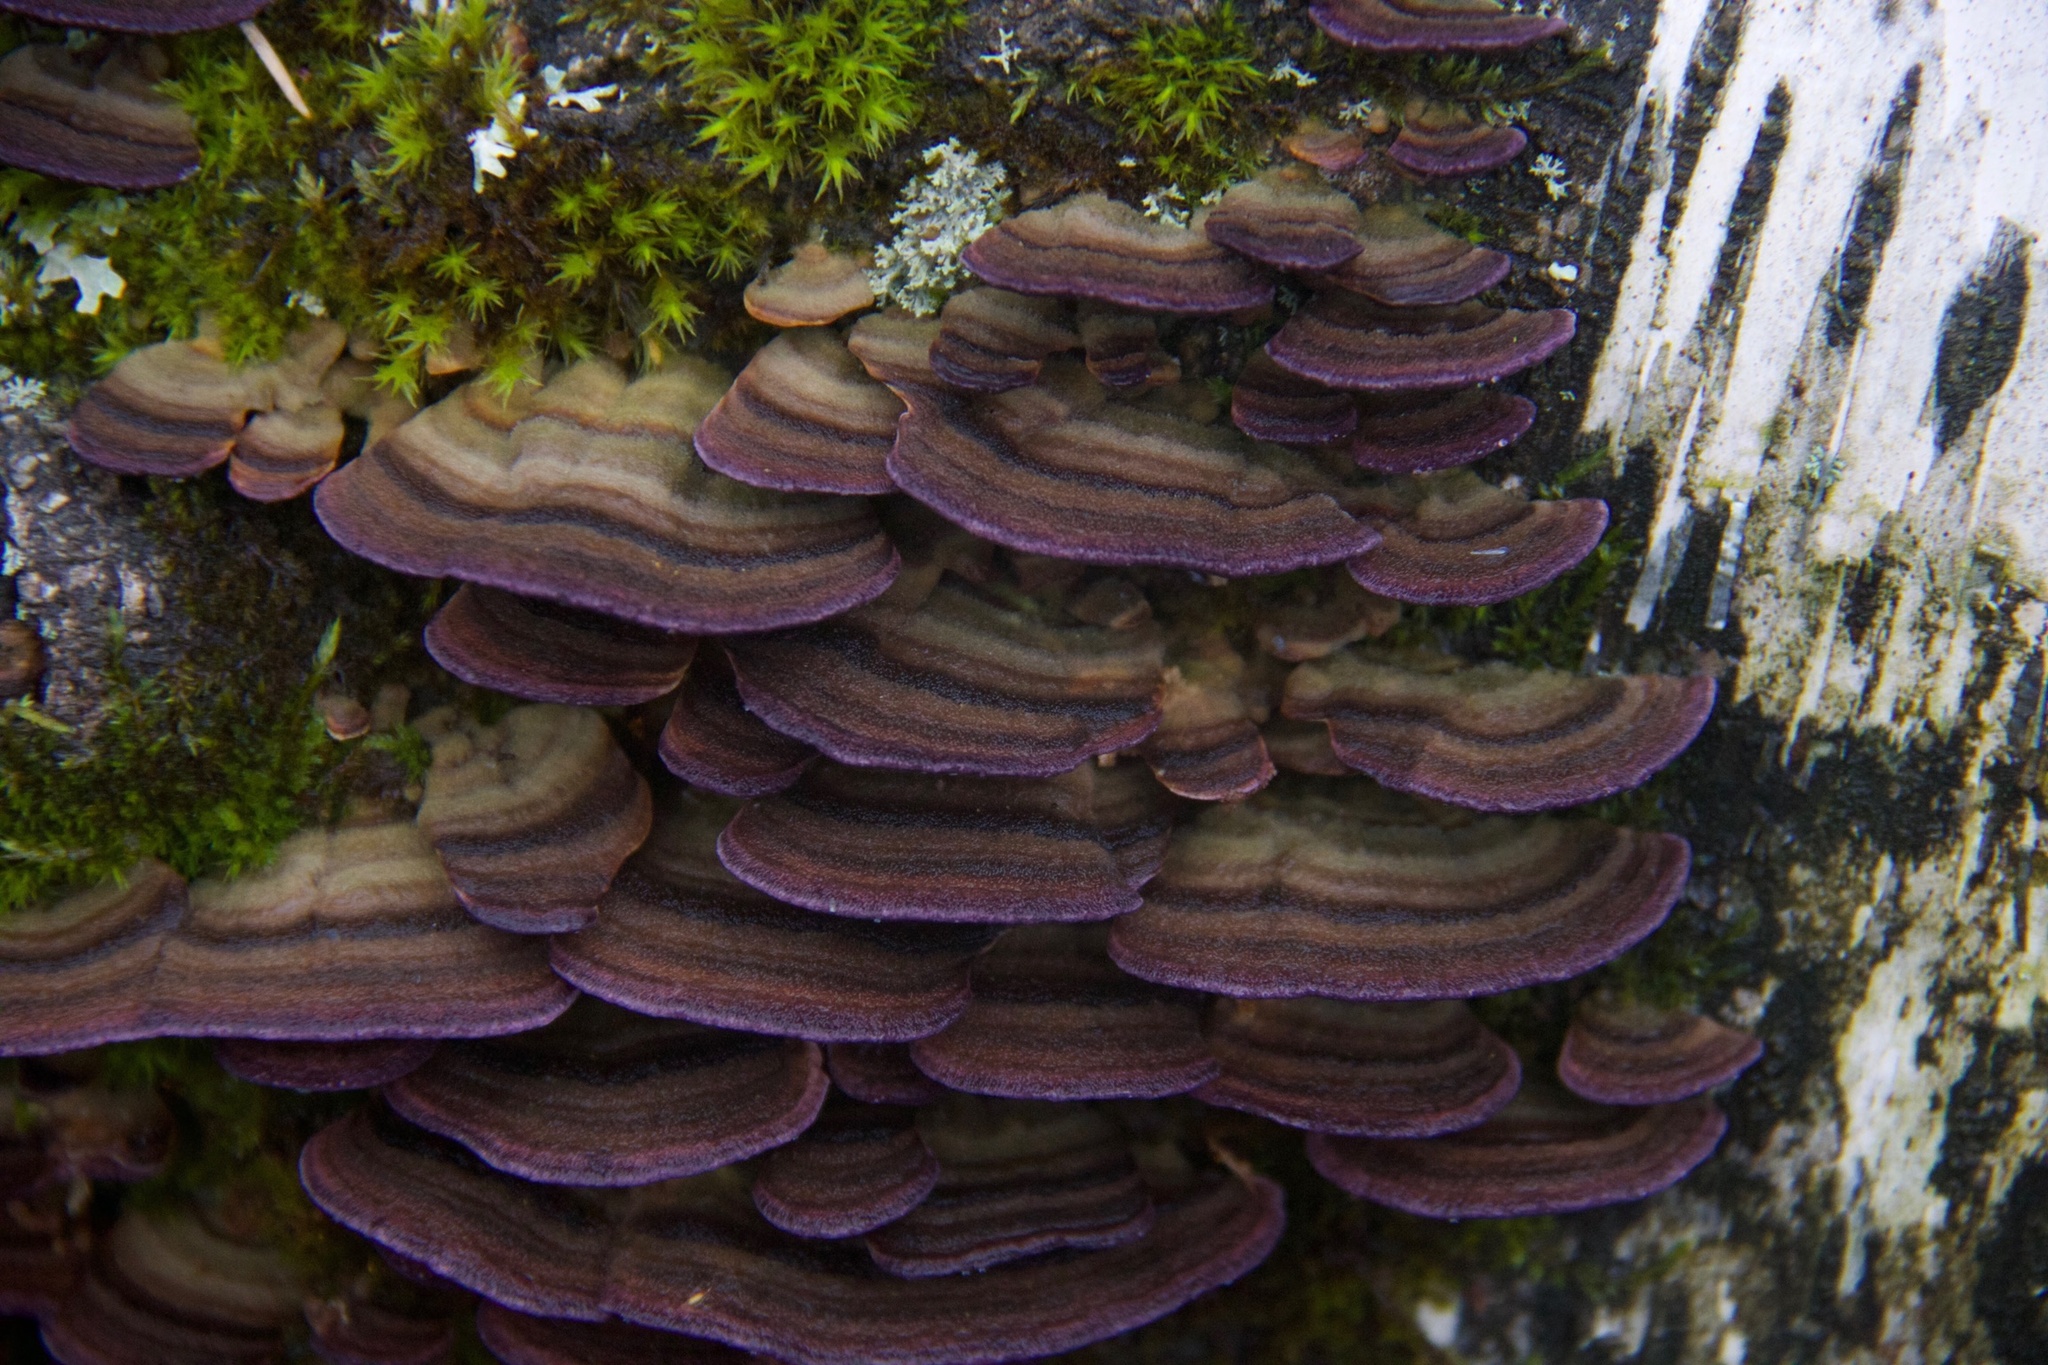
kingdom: Fungi
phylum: Basidiomycota
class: Agaricomycetes
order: Hymenochaetales
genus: Trichaptum
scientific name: Trichaptum biforme
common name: Violet-toothed polypore
